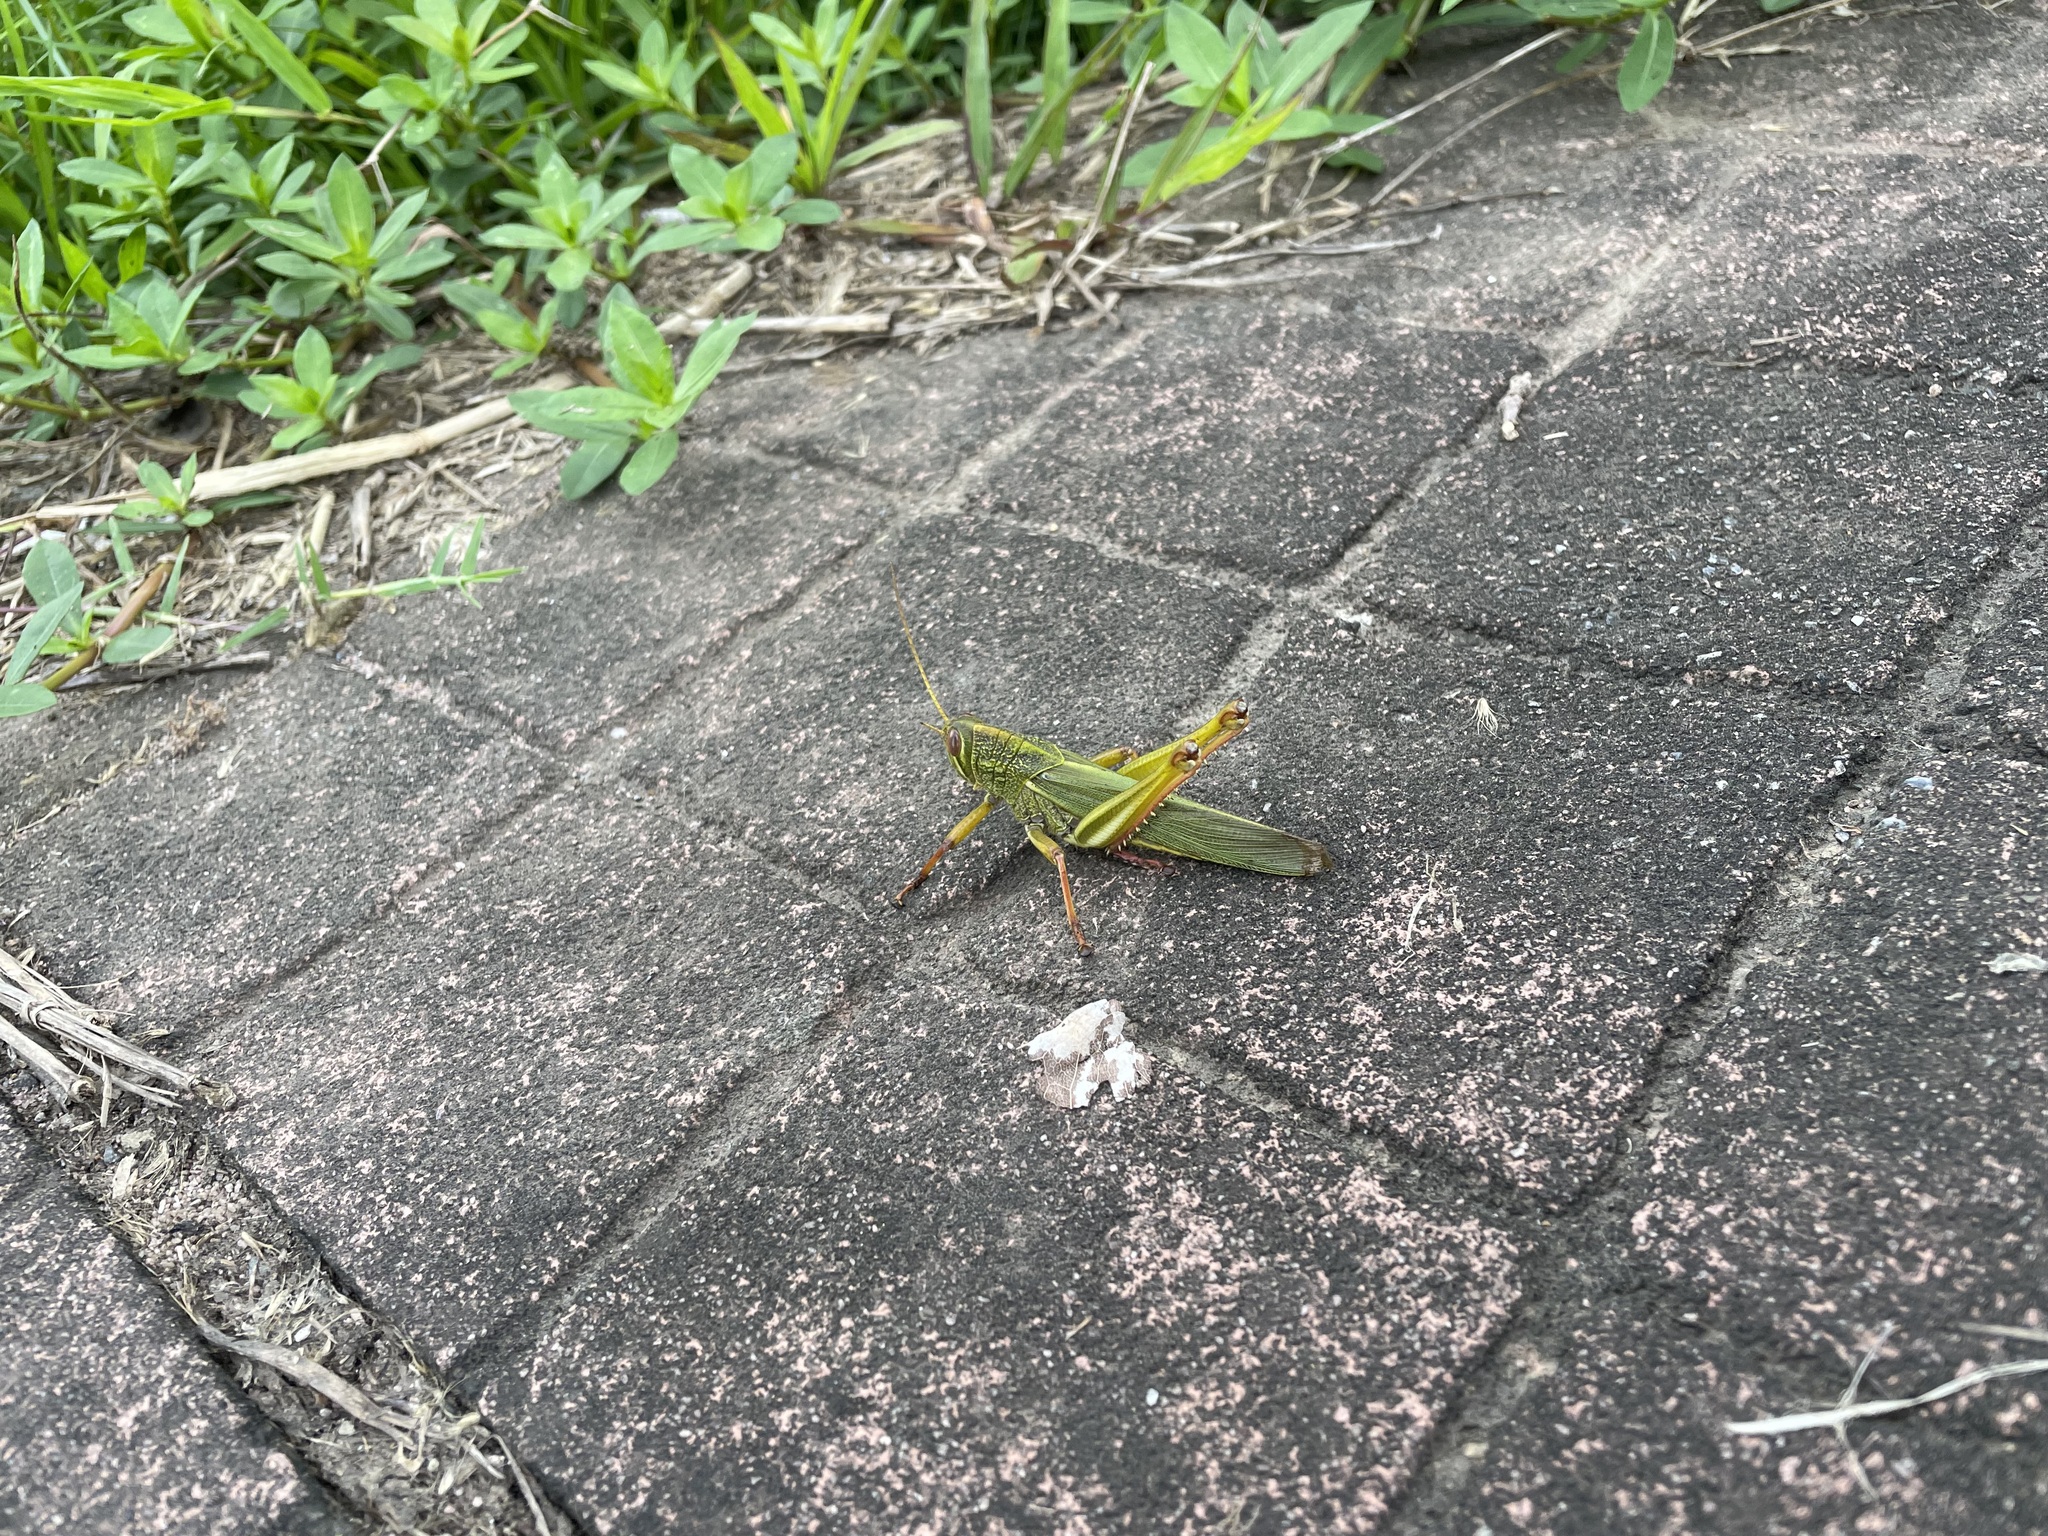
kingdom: Animalia
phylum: Arthropoda
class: Insecta
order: Orthoptera
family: Acrididae
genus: Chondracris
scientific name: Chondracris rosea
